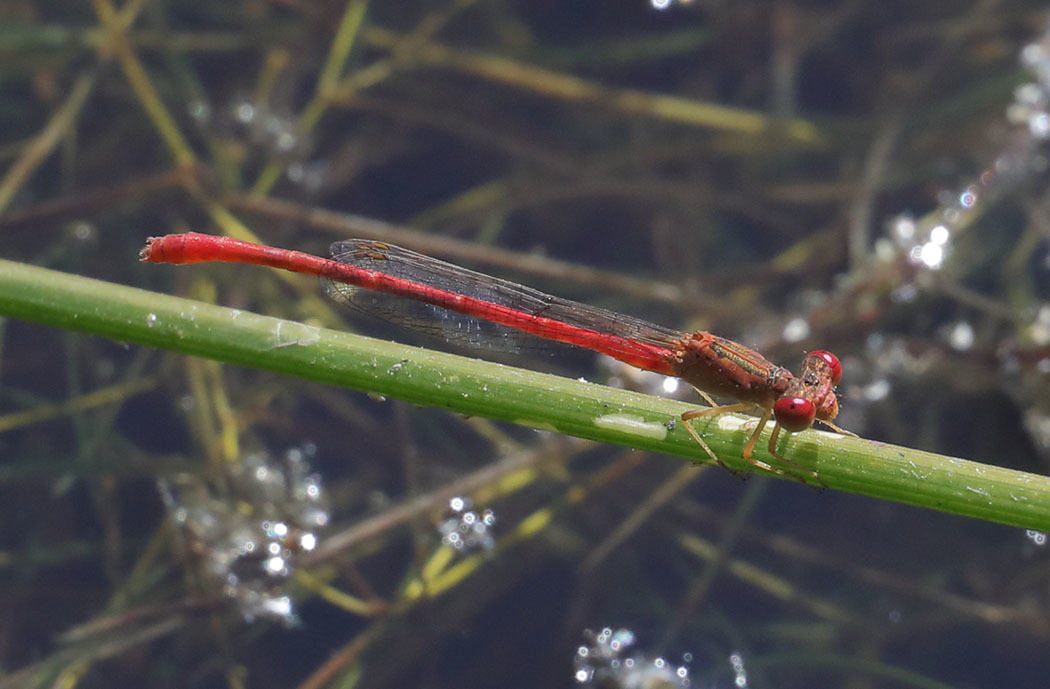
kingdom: Animalia
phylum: Arthropoda
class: Insecta
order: Odonata
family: Coenagrionidae
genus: Telebasis
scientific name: Telebasis salva
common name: Desert firetail
